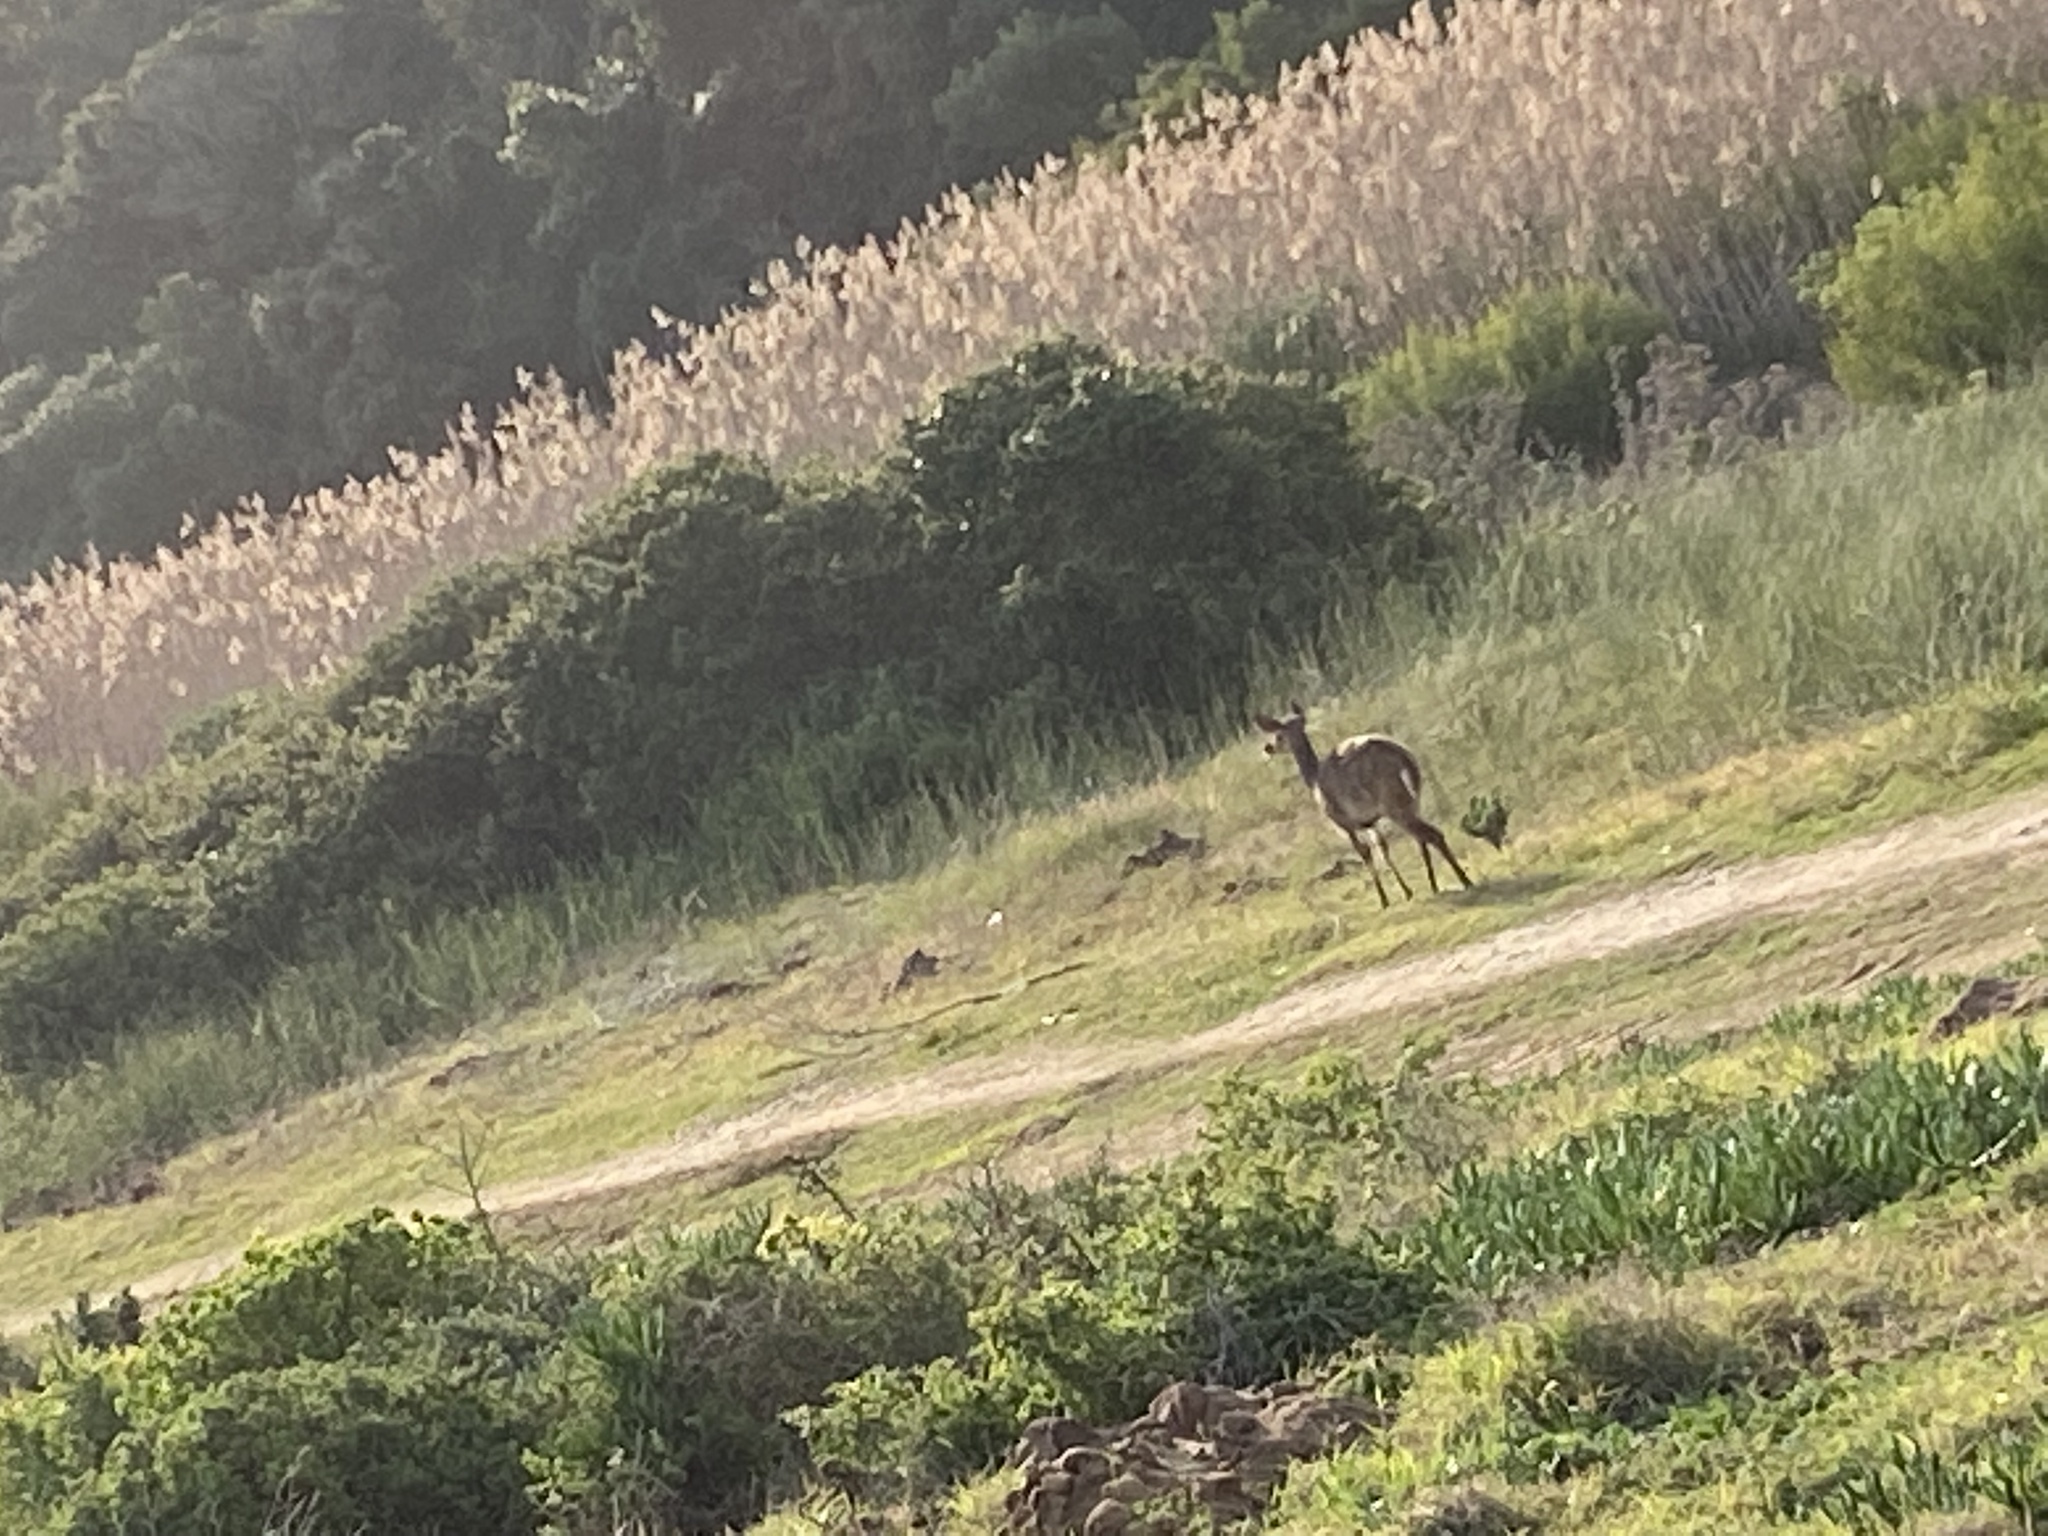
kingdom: Animalia
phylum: Chordata
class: Mammalia
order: Artiodactyla
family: Bovidae
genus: Tragelaphus
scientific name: Tragelaphus scriptus
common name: Bushbuck
